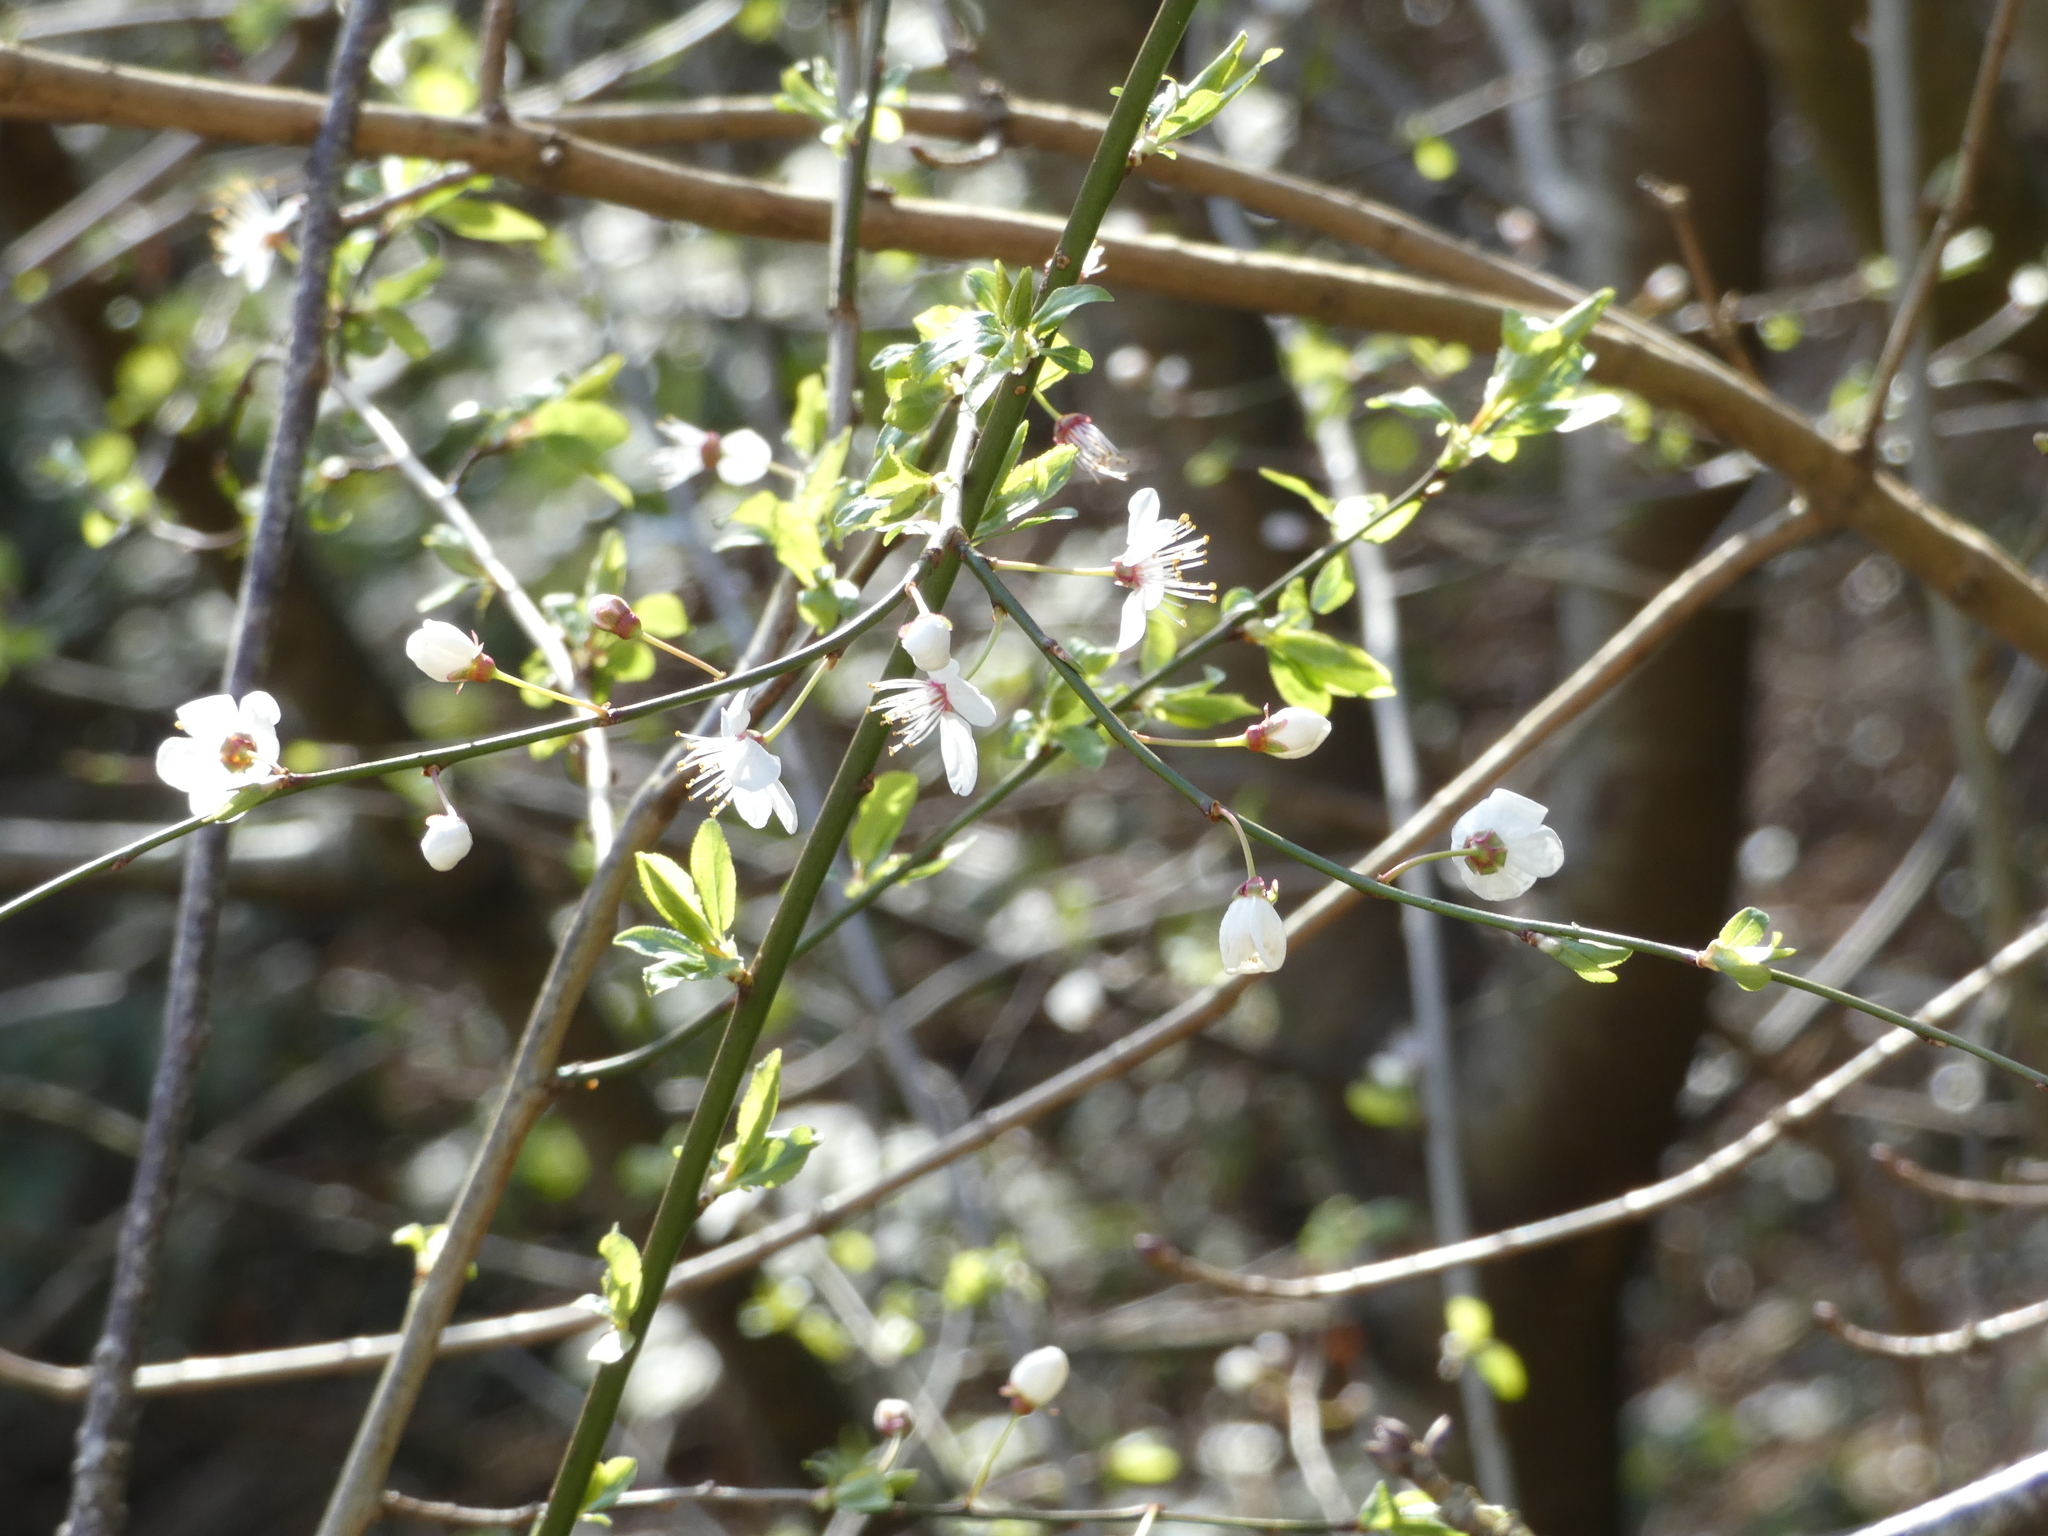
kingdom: Plantae
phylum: Tracheophyta
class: Magnoliopsida
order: Rosales
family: Rosaceae
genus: Prunus
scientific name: Prunus cerasifera
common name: Cherry plum
